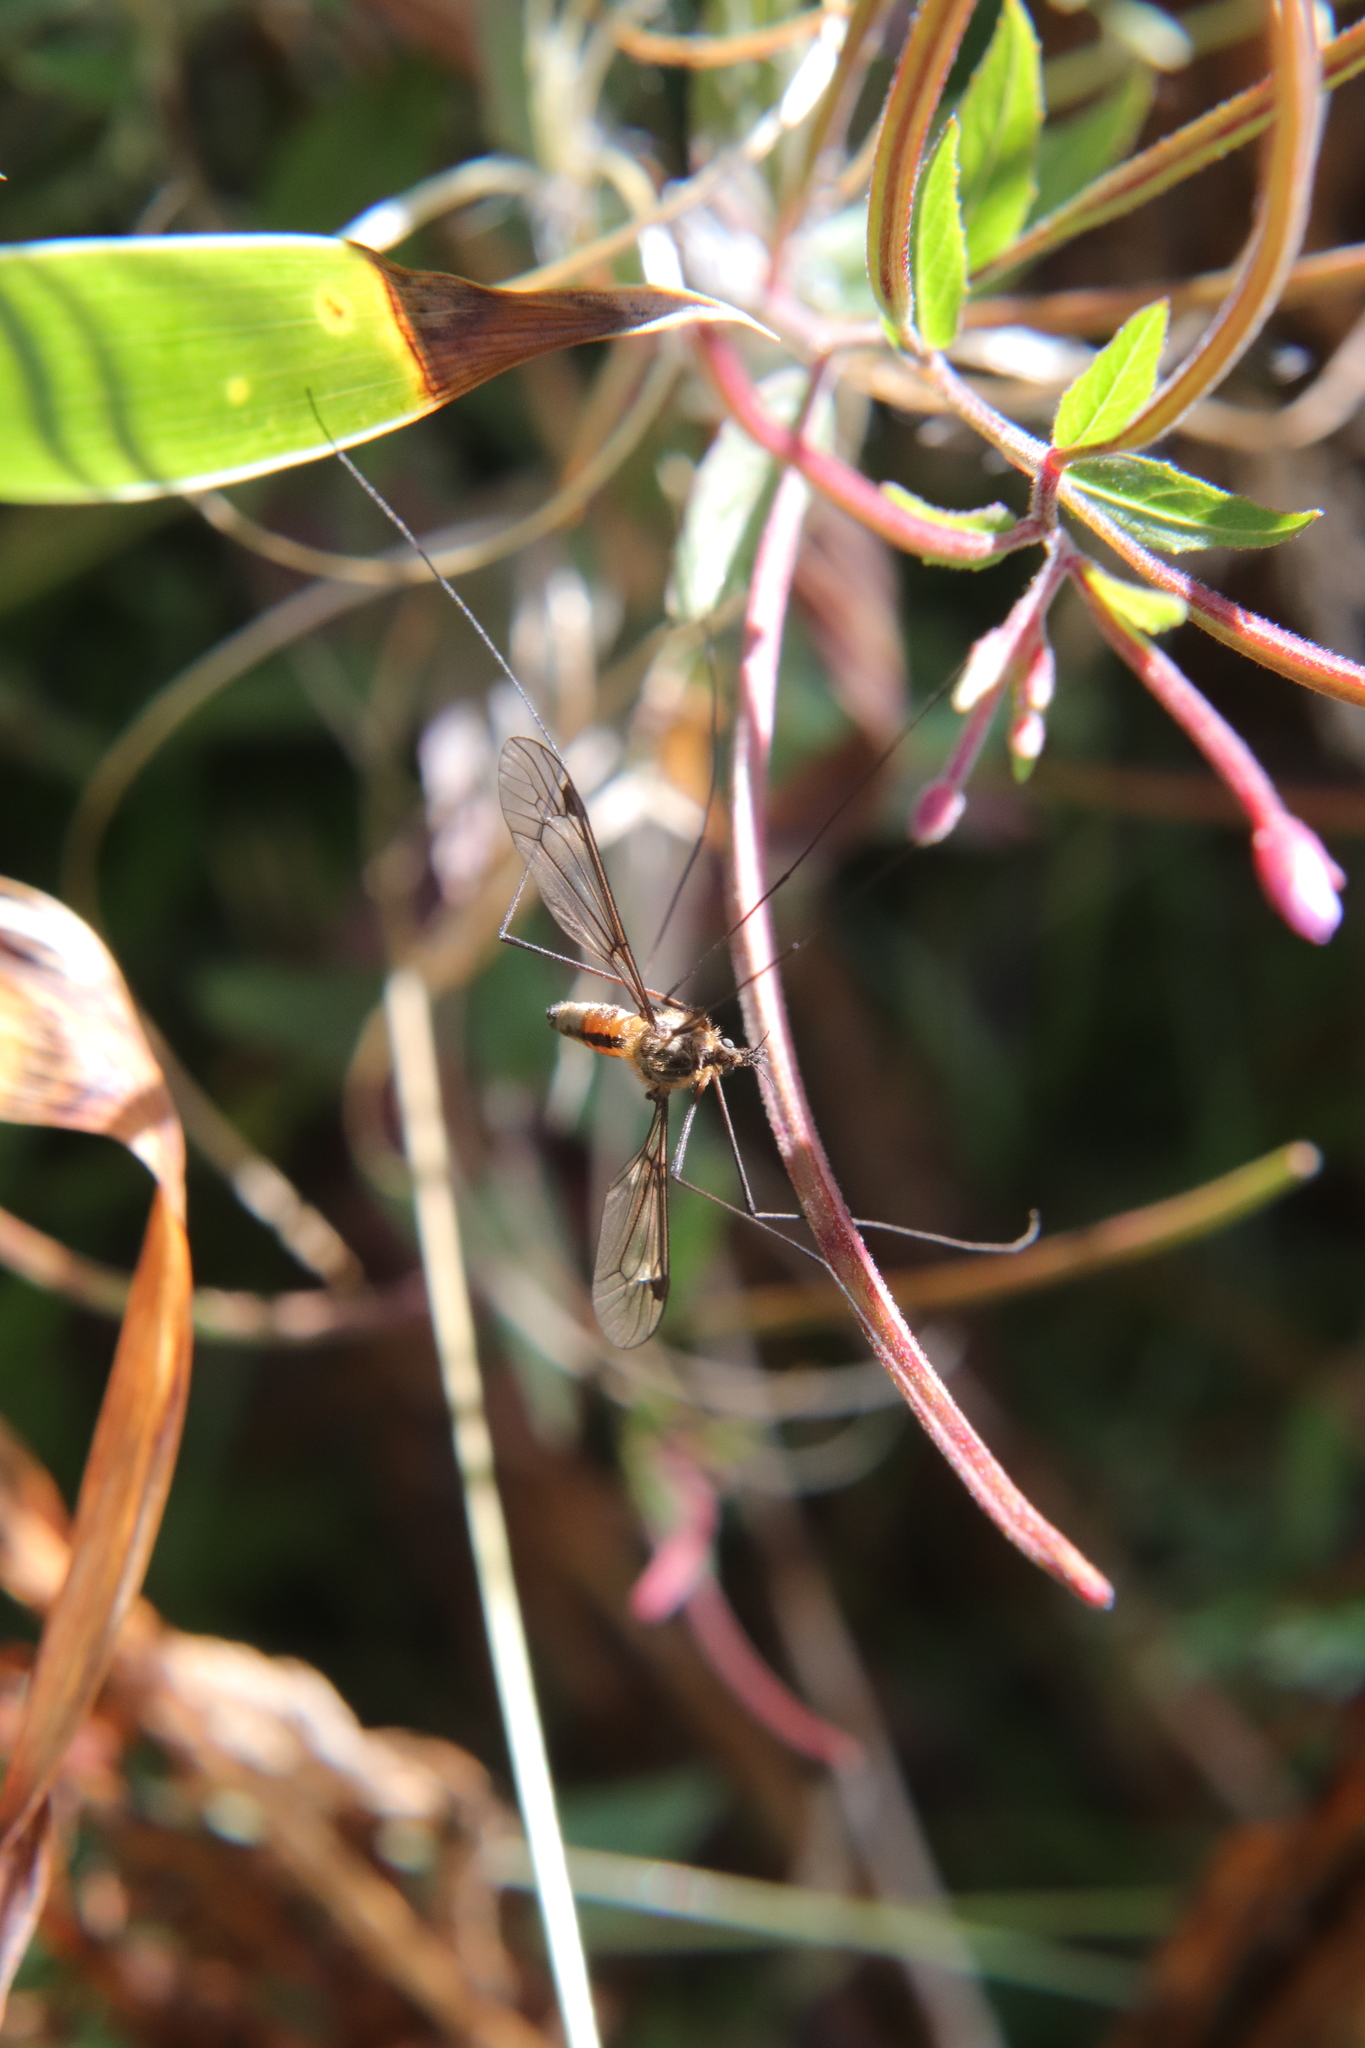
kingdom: Animalia
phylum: Arthropoda
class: Insecta
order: Diptera
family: Tipulidae
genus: Leptotarsus
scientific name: Leptotarsus rufibasis
